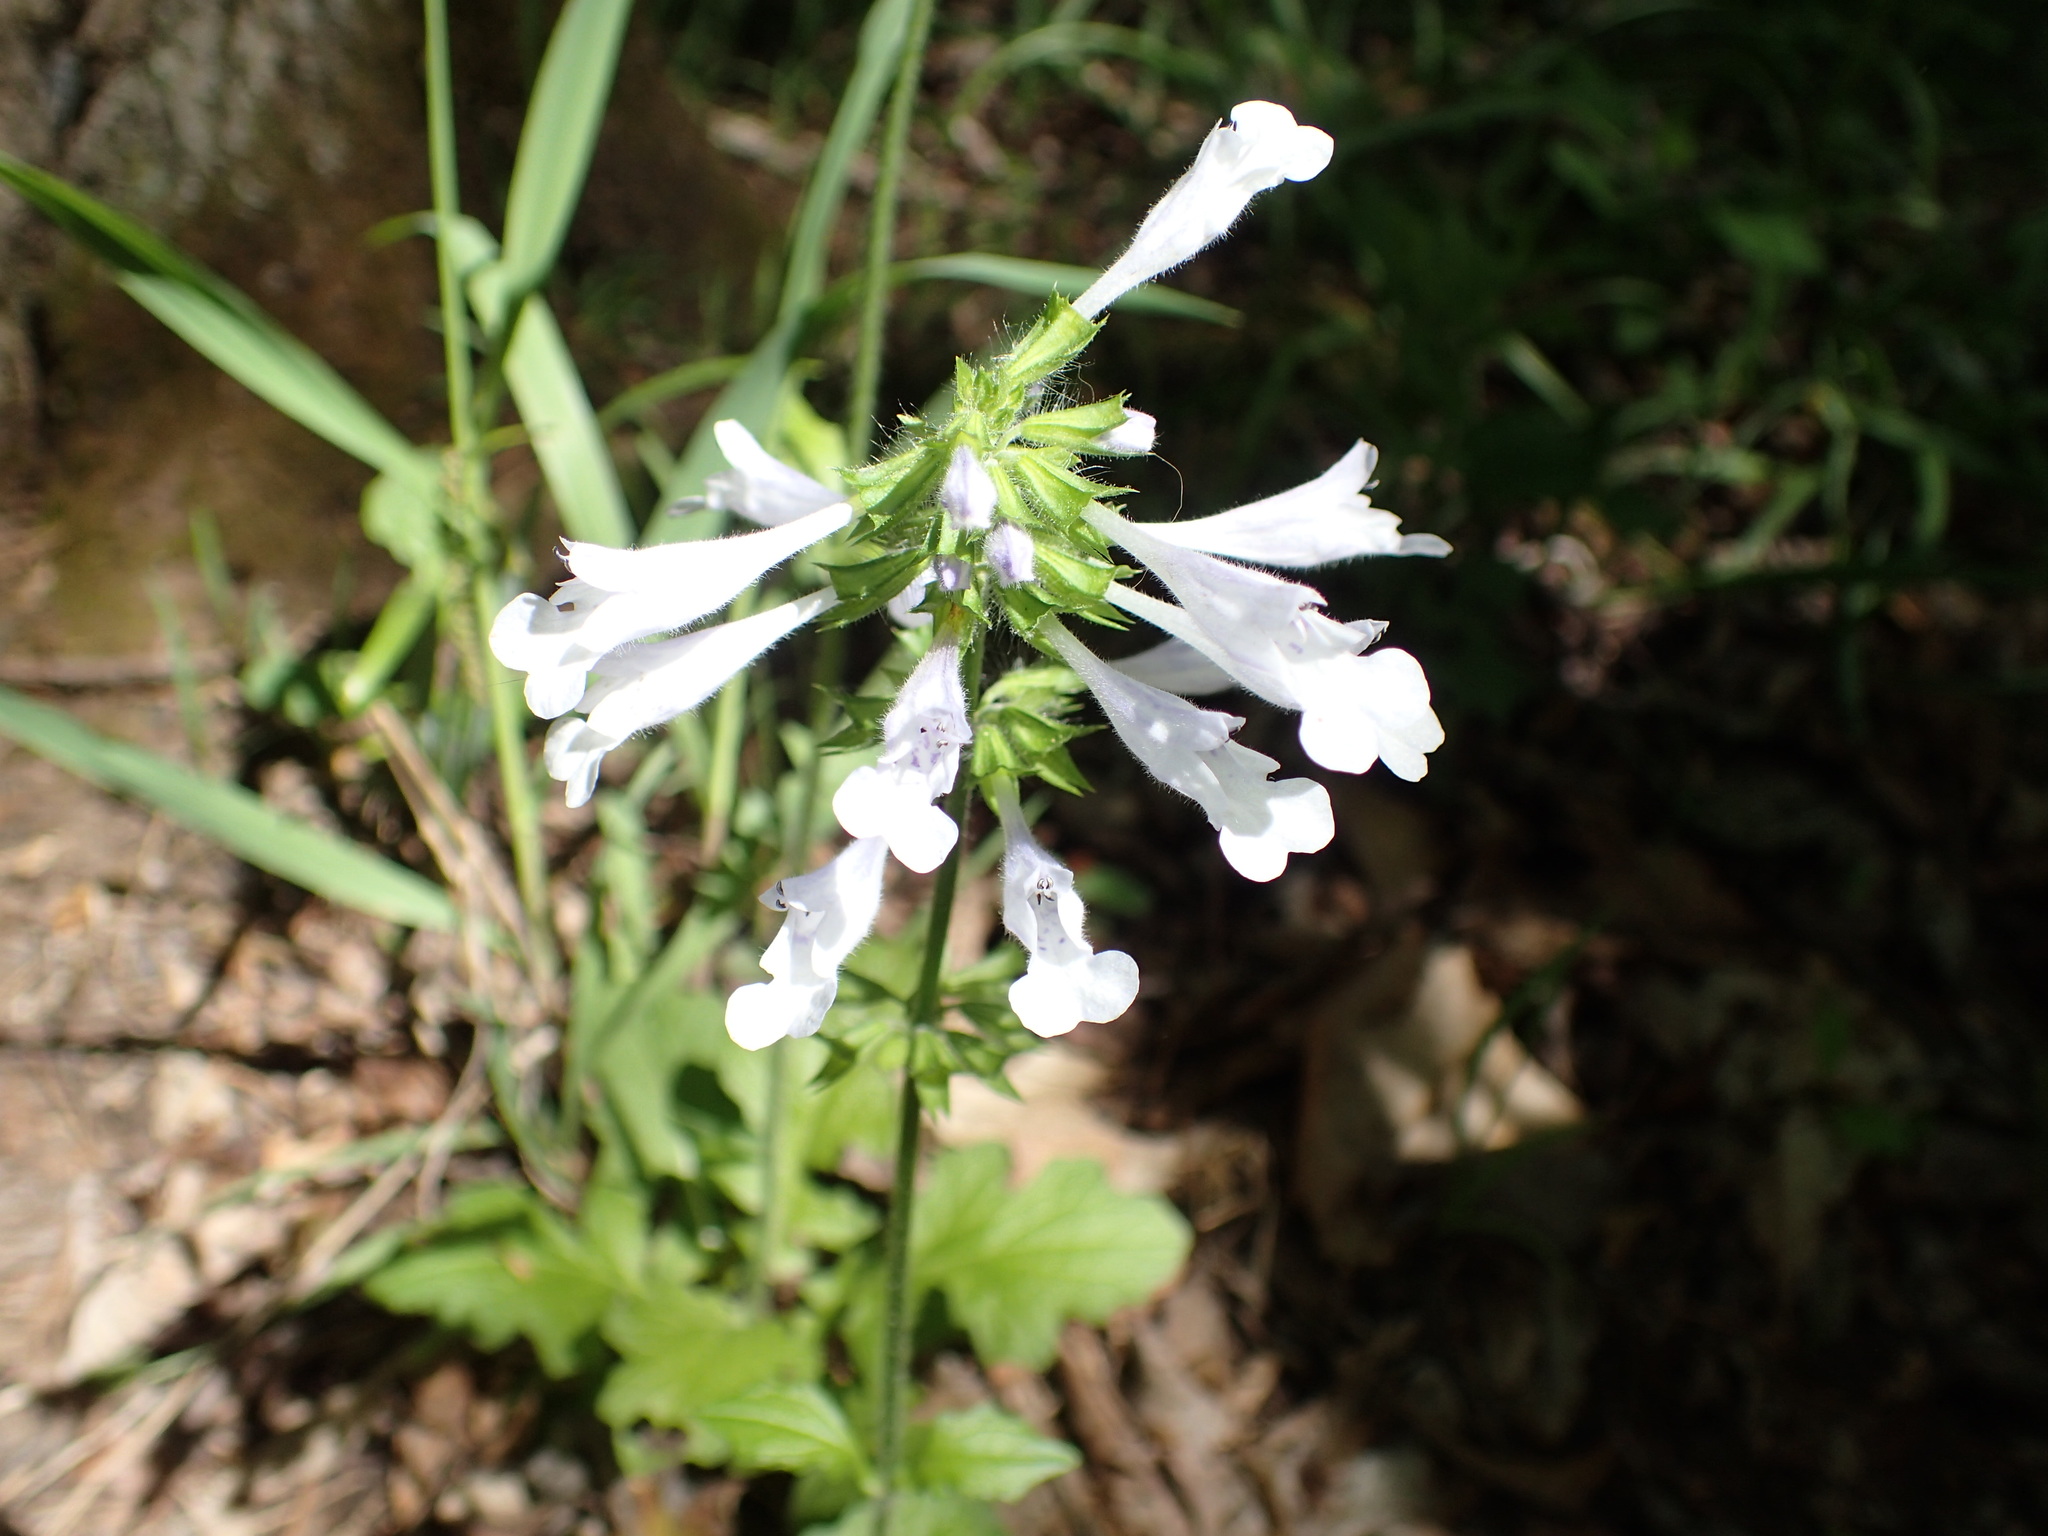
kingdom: Plantae
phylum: Tracheophyta
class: Magnoliopsida
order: Lamiales
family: Lamiaceae
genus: Salvia
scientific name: Salvia lyrata
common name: Cancerweed
